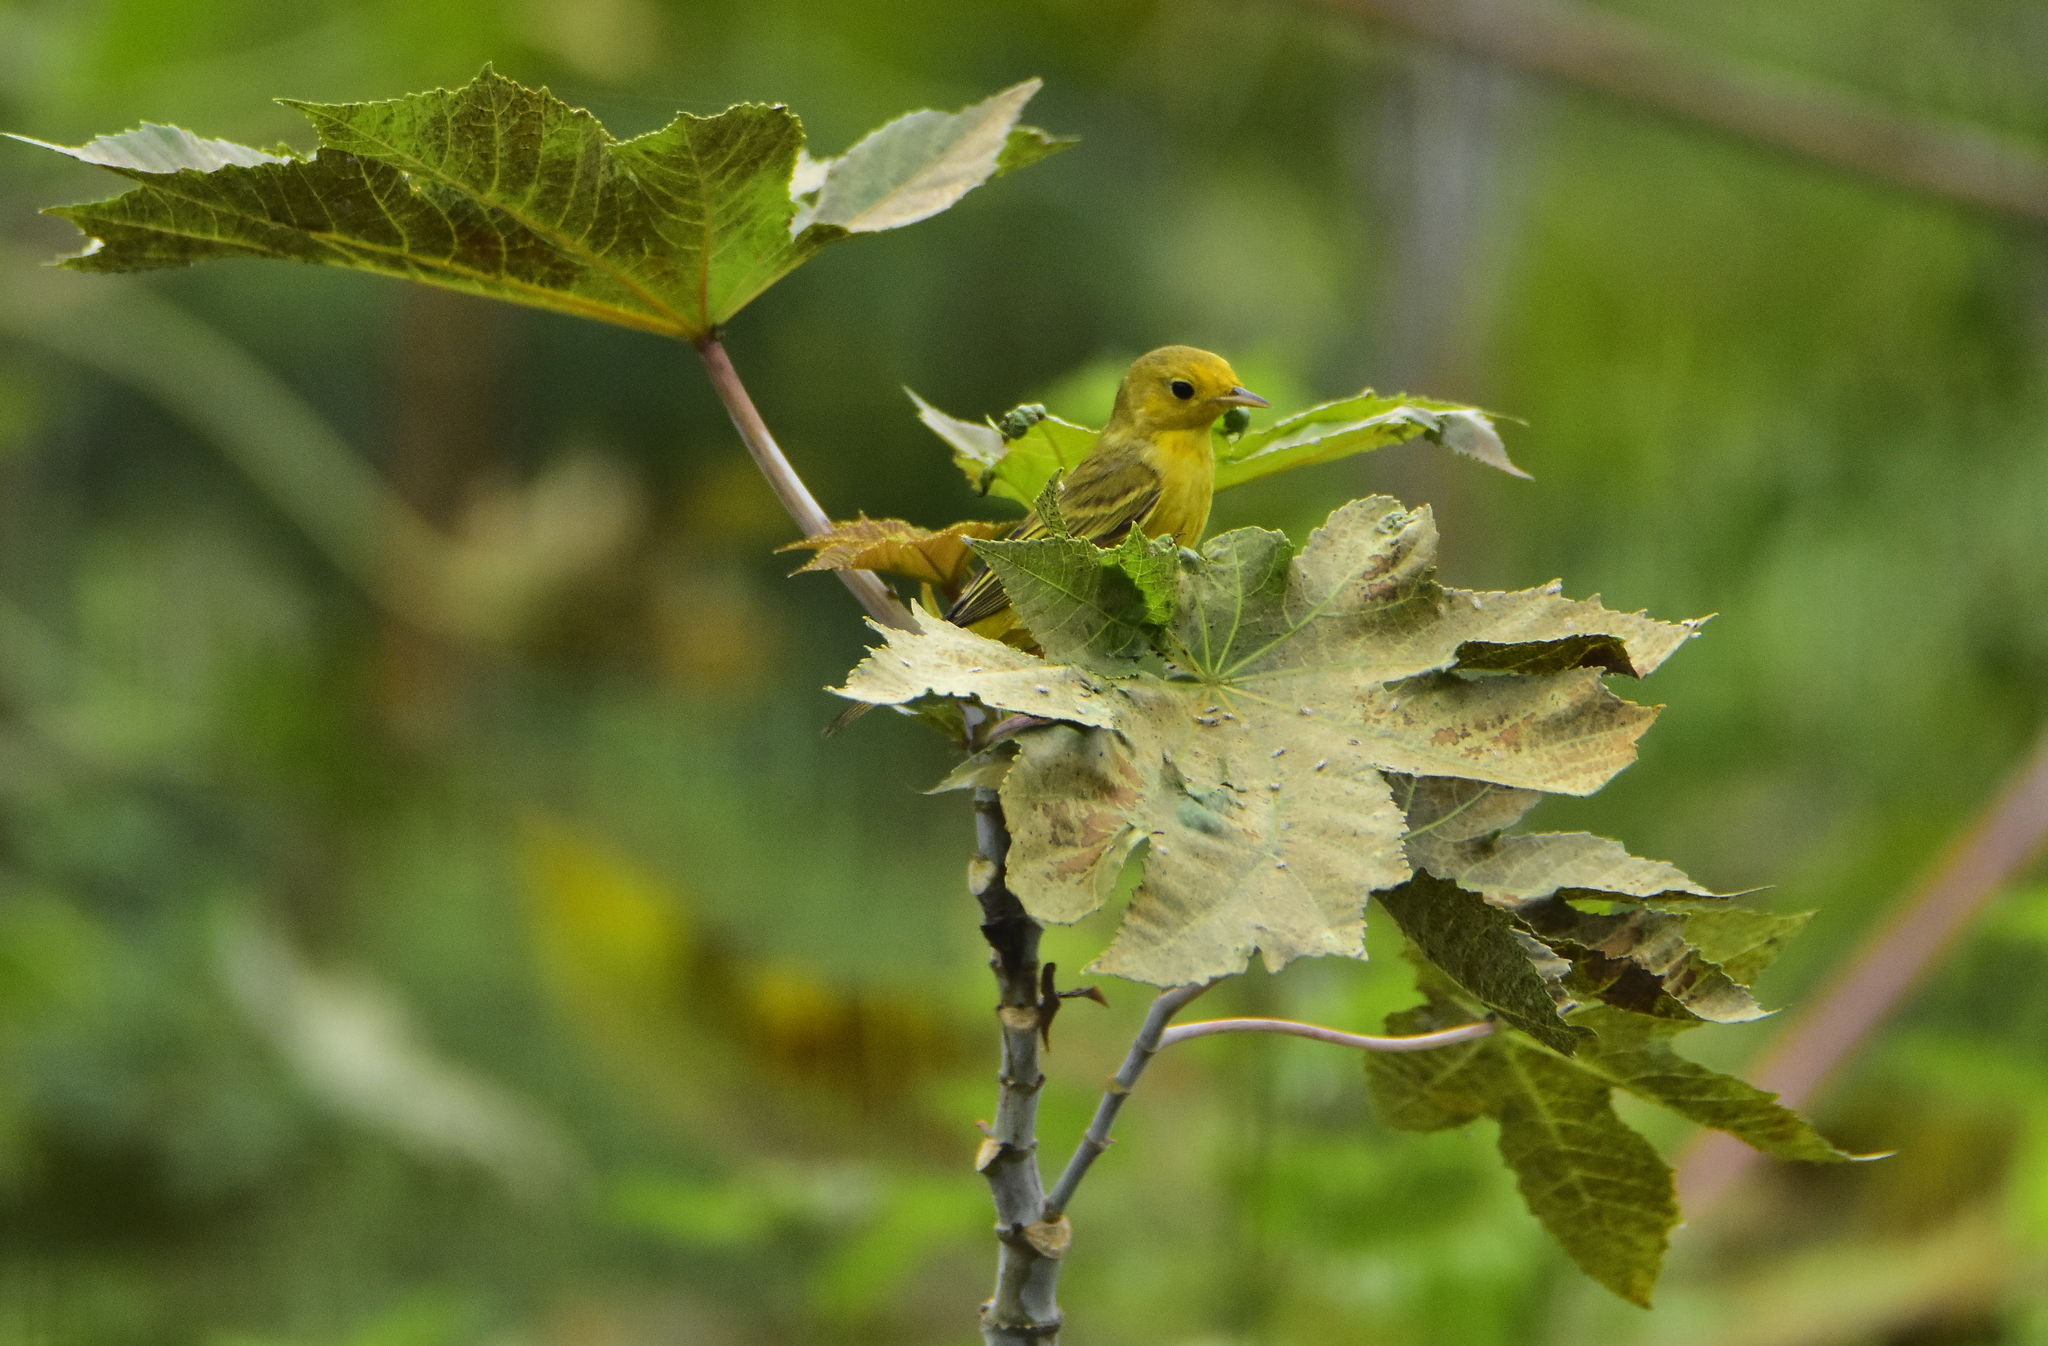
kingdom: Animalia
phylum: Chordata
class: Aves
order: Passeriformes
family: Parulidae
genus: Setophaga
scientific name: Setophaga petechia
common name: Yellow warbler
